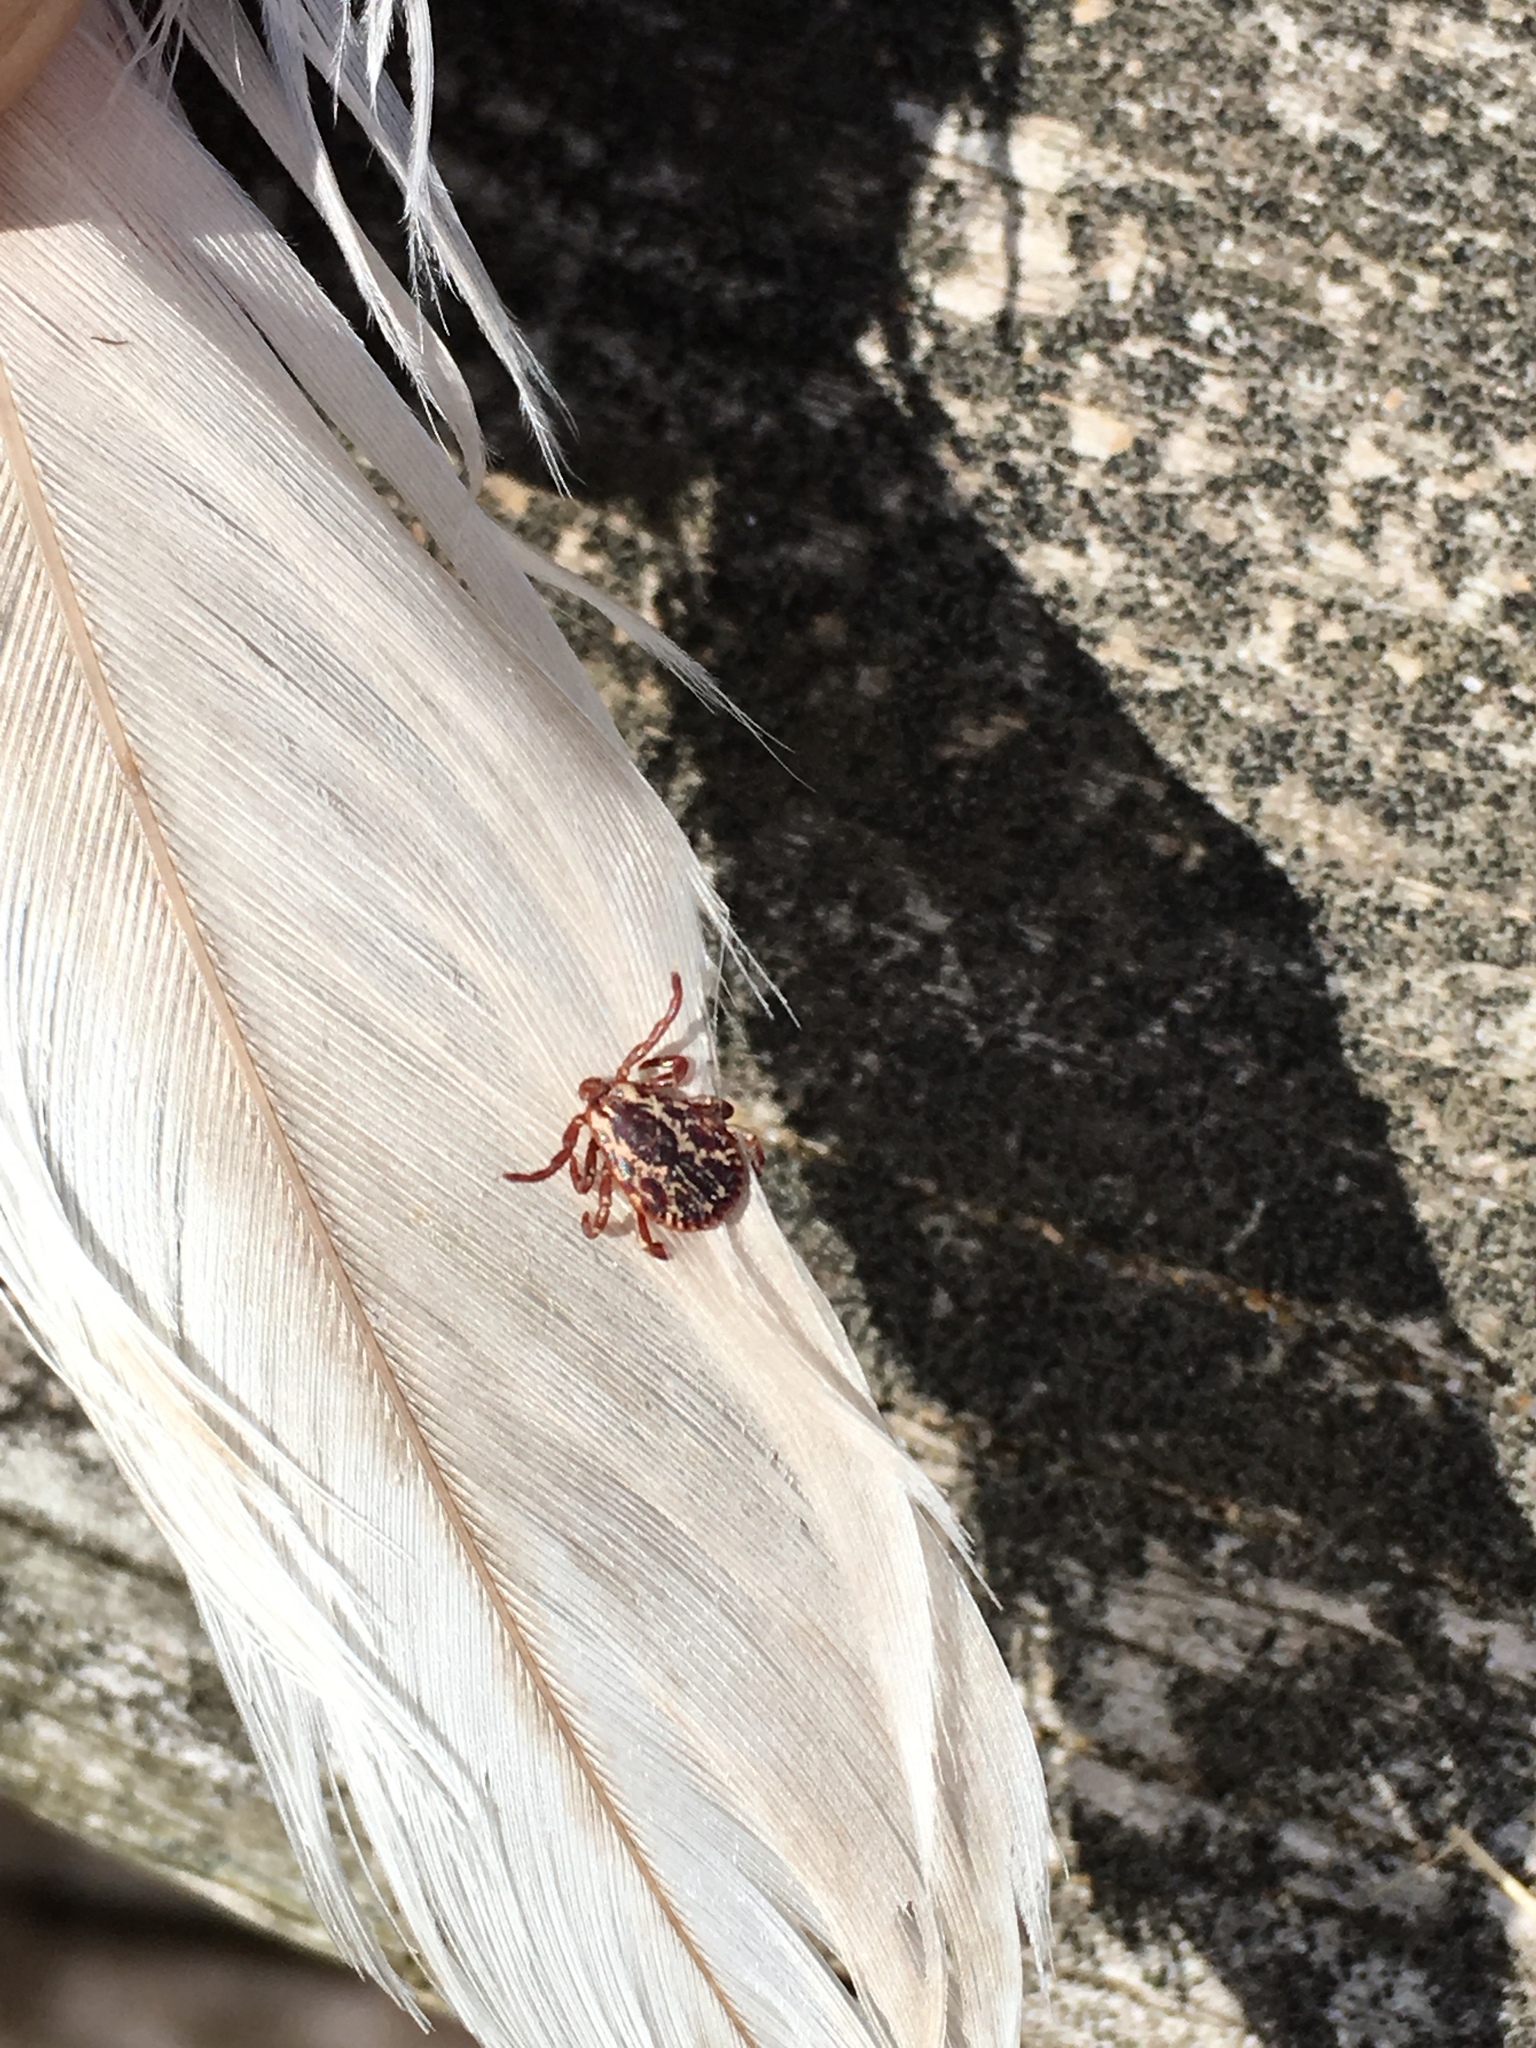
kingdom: Animalia
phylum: Arthropoda
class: Arachnida
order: Ixodida
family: Ixodidae
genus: Dermacentor
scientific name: Dermacentor variabilis
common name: American dog tick
